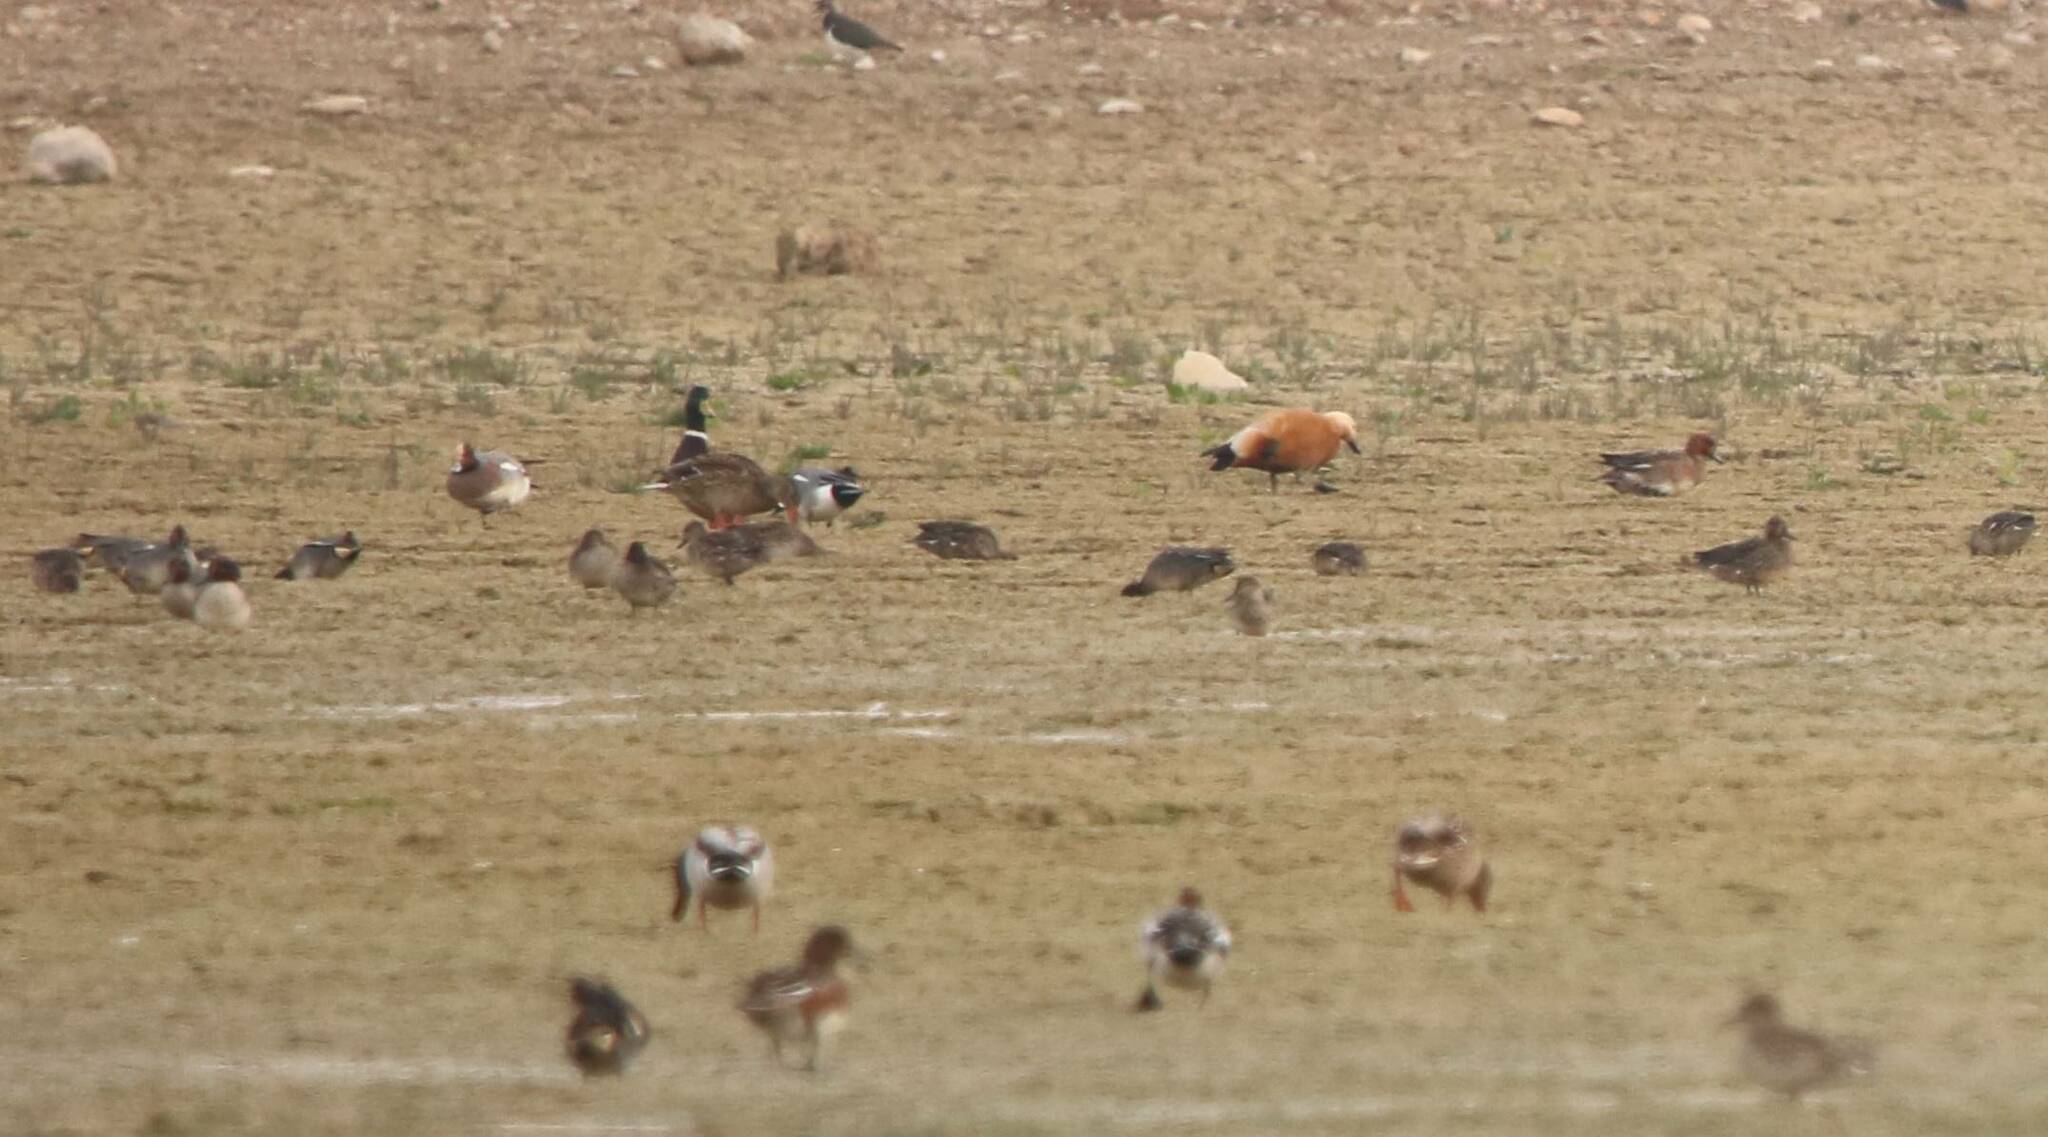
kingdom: Animalia
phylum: Chordata
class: Aves
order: Anseriformes
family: Anatidae
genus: Tadorna
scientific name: Tadorna ferruginea
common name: Ruddy shelduck
